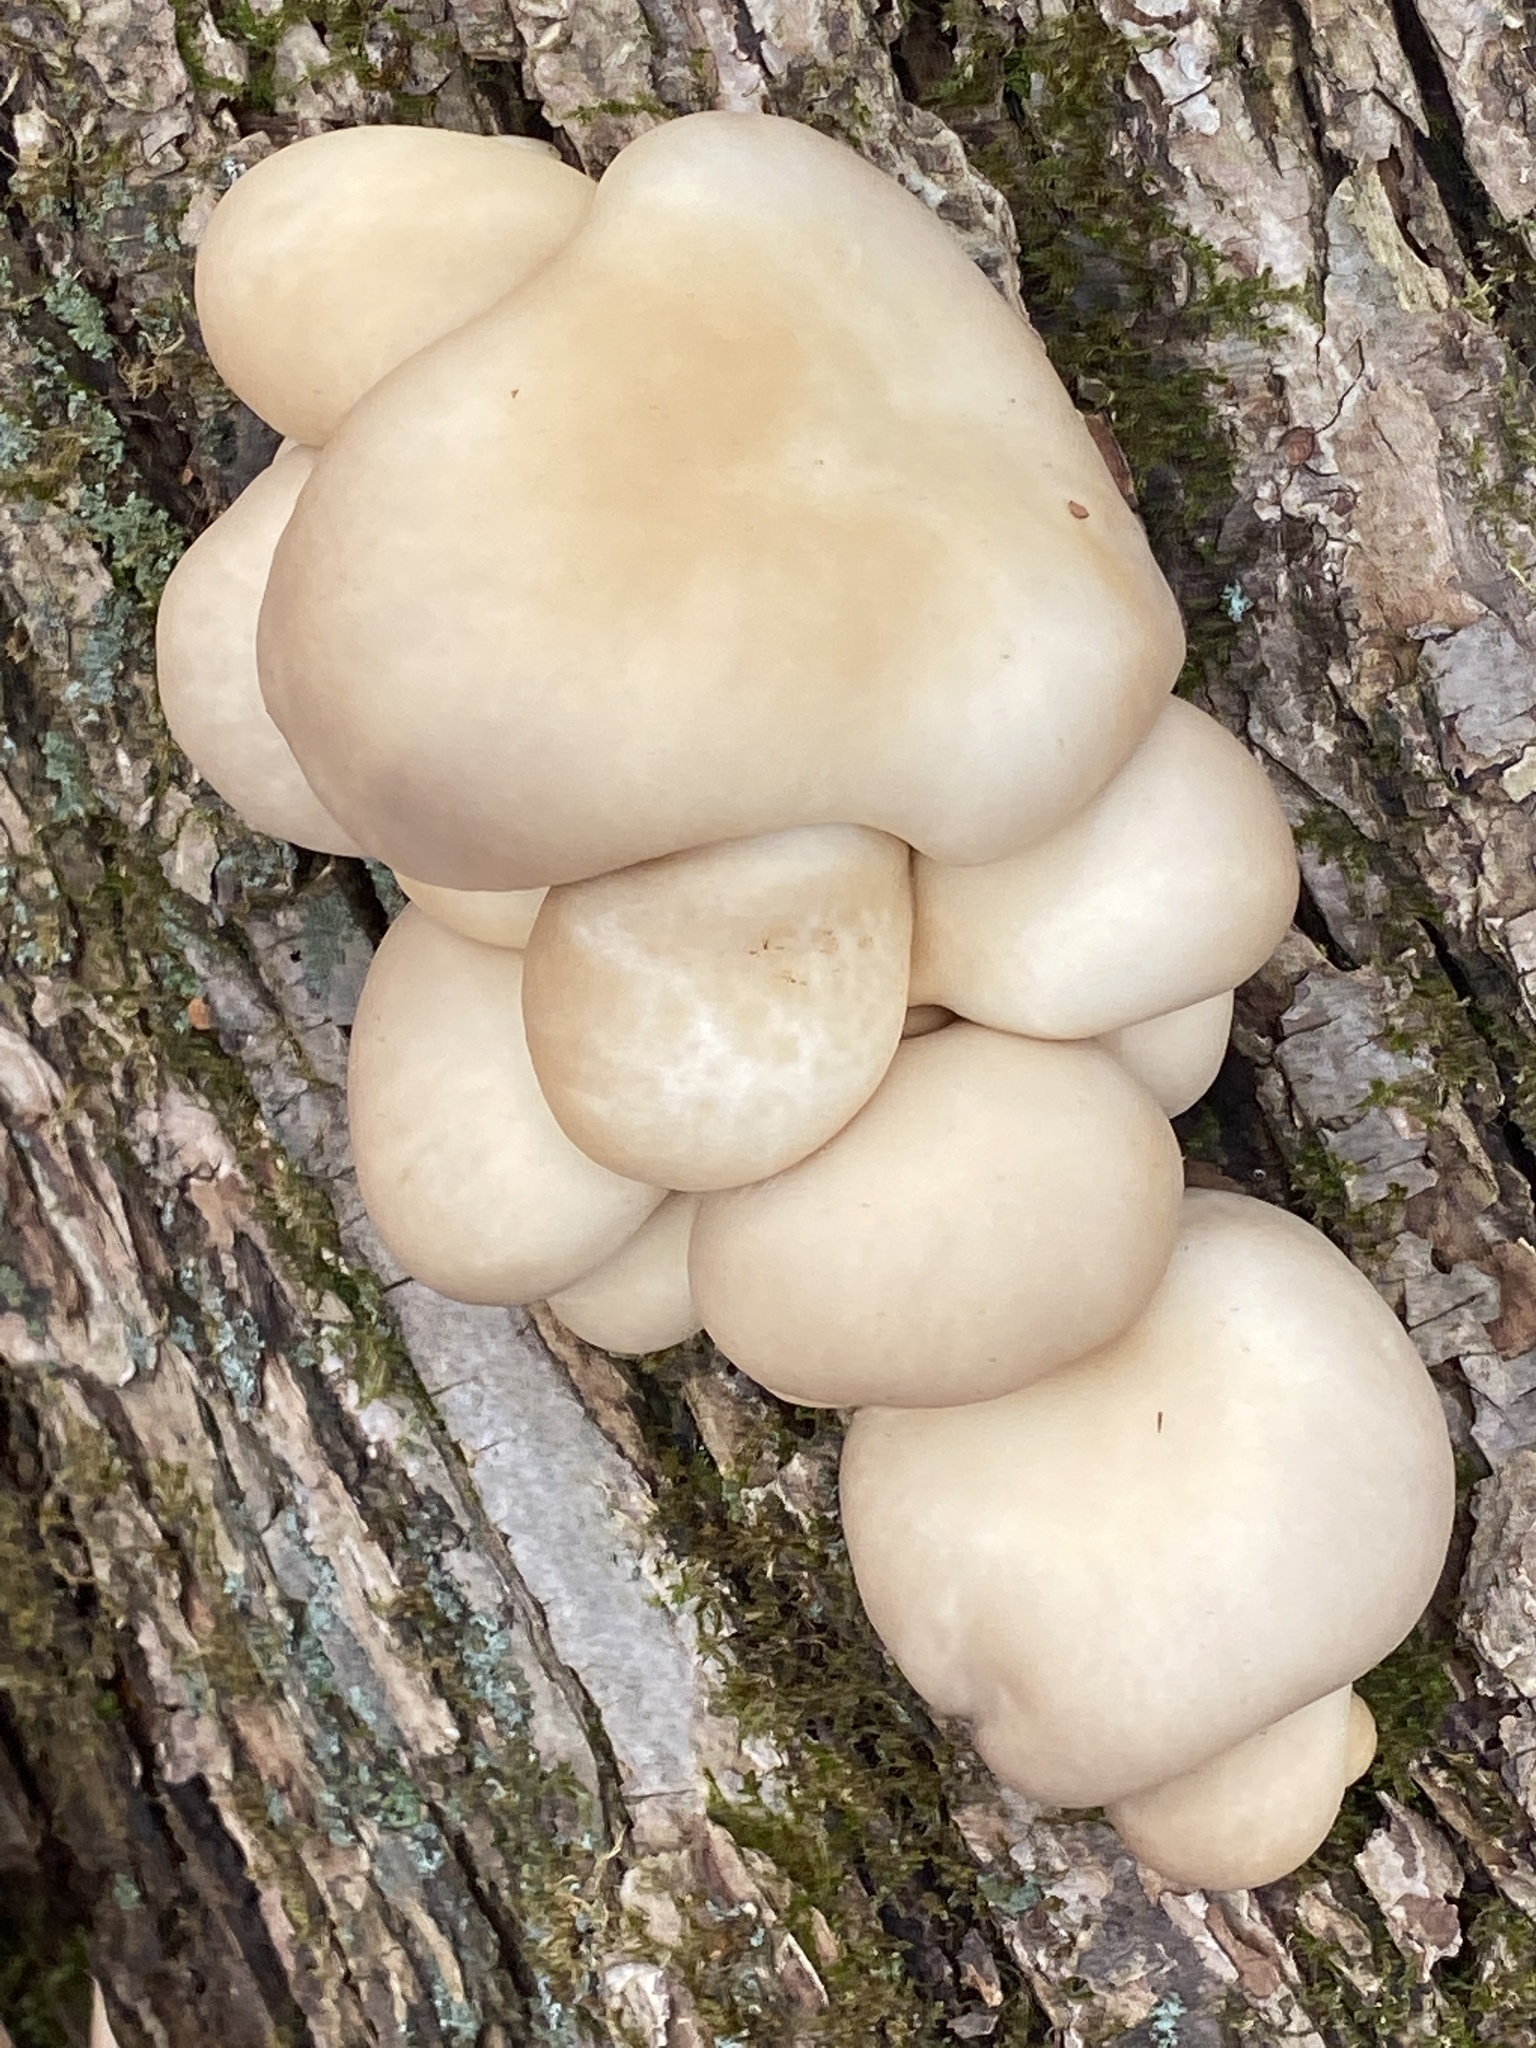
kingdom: Fungi
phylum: Basidiomycota
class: Agaricomycetes
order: Agaricales
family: Pleurotaceae
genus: Pleurotus
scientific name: Pleurotus ostreatus
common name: Oyster mushroom
